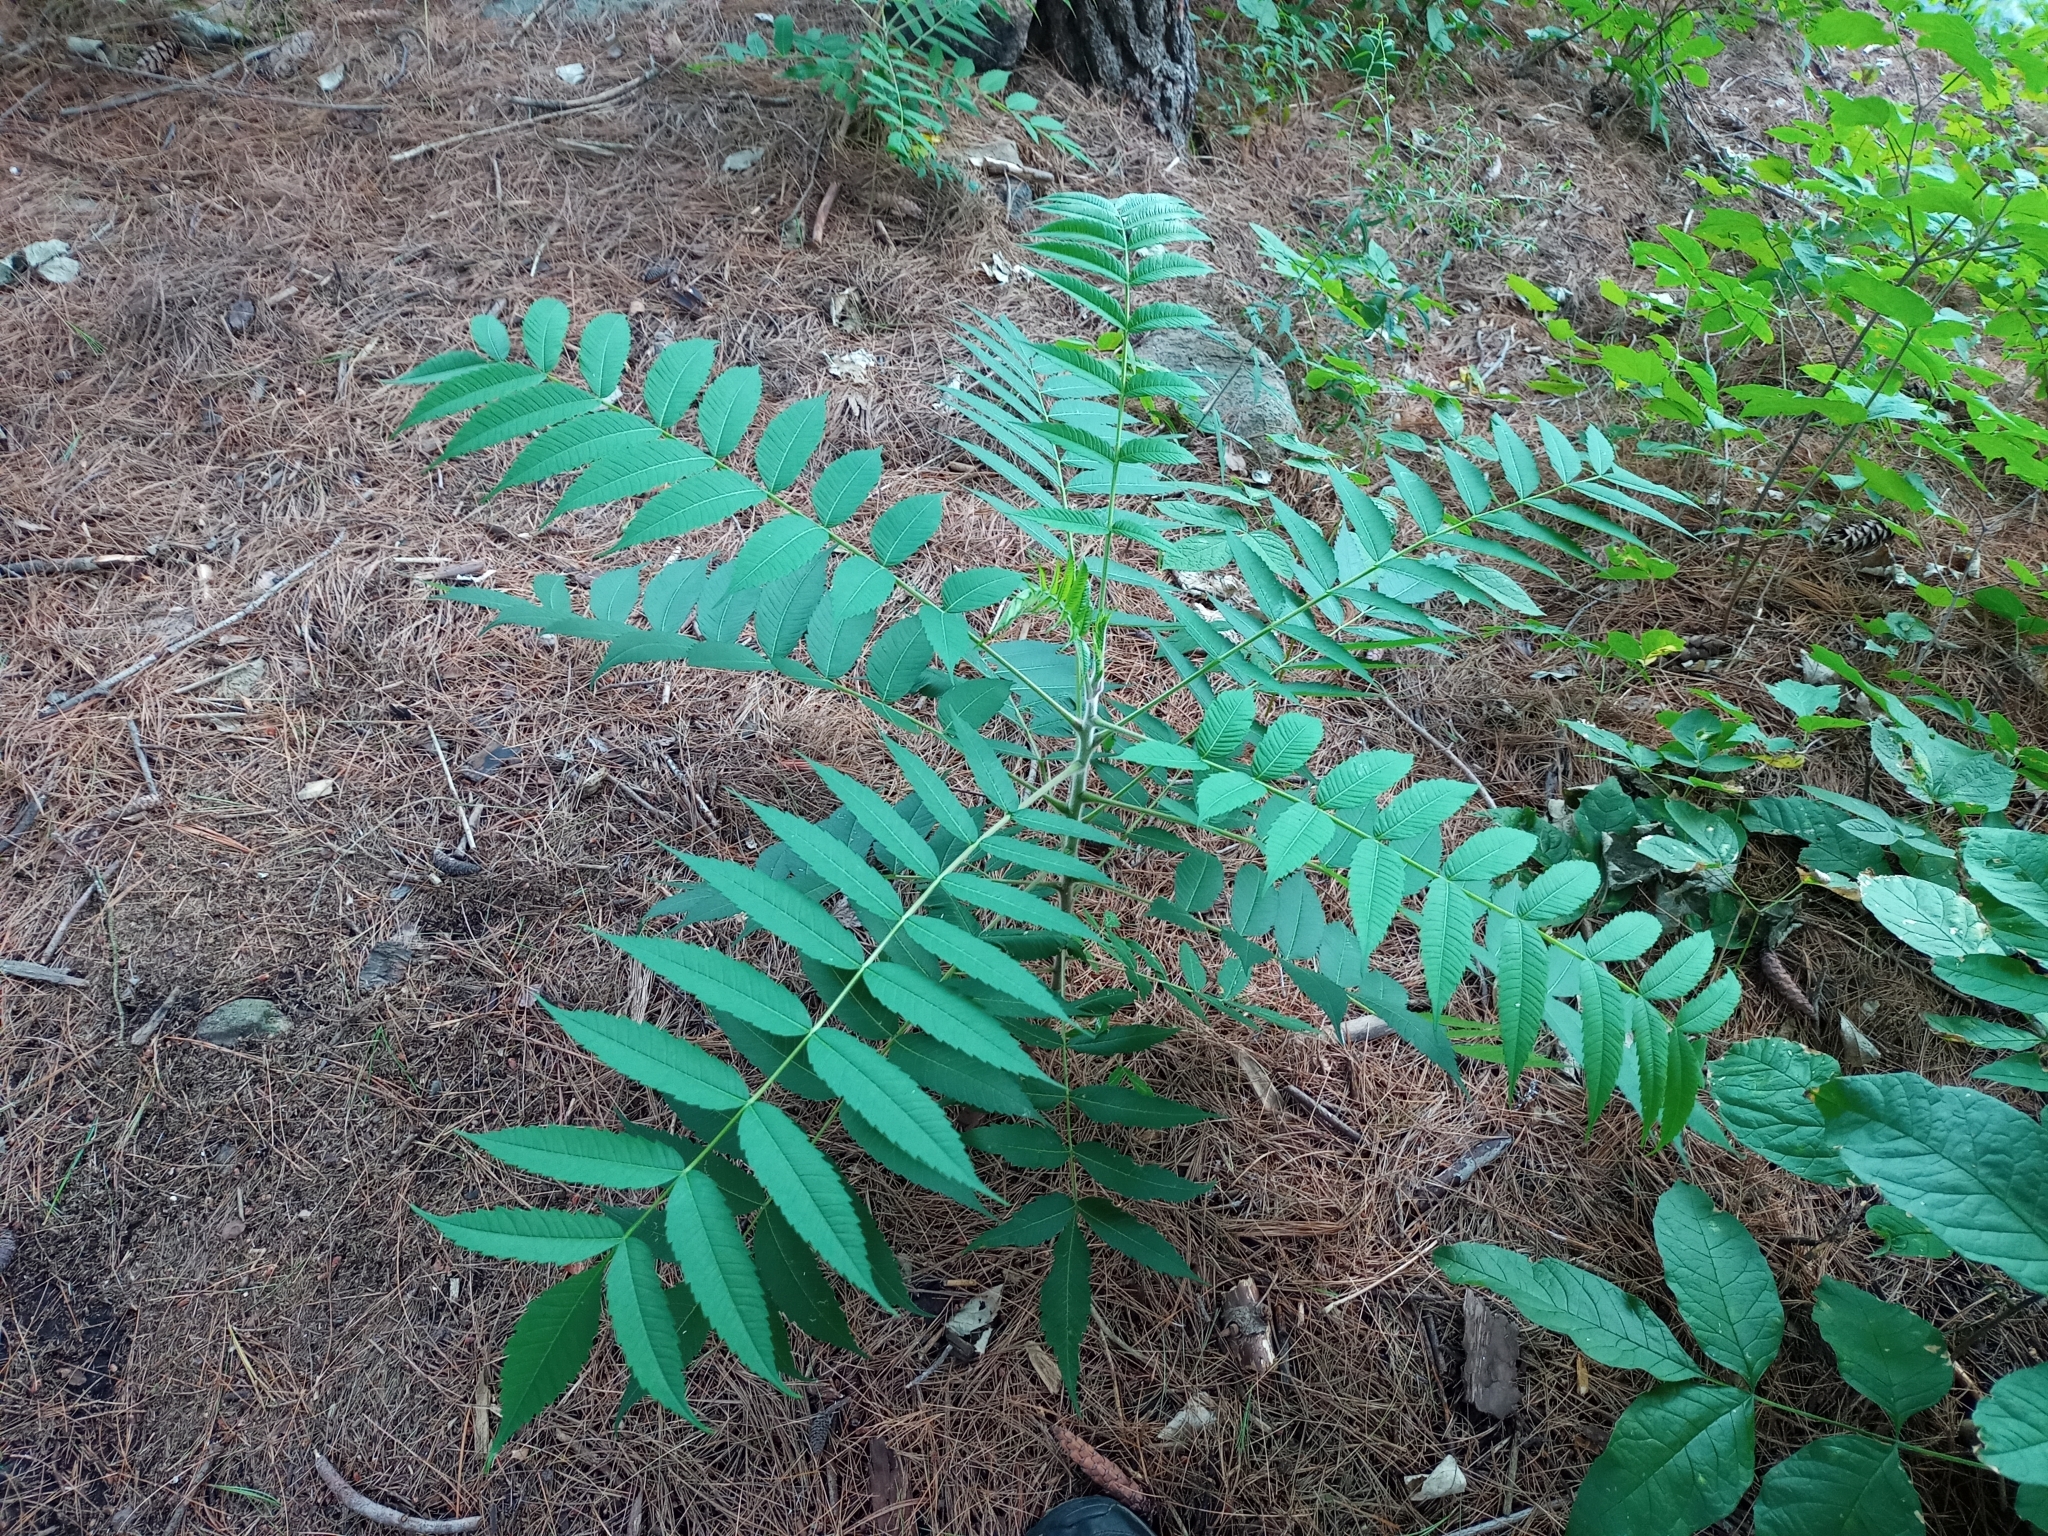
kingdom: Plantae
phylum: Tracheophyta
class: Magnoliopsida
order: Sapindales
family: Anacardiaceae
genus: Rhus
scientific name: Rhus typhina
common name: Staghorn sumac
